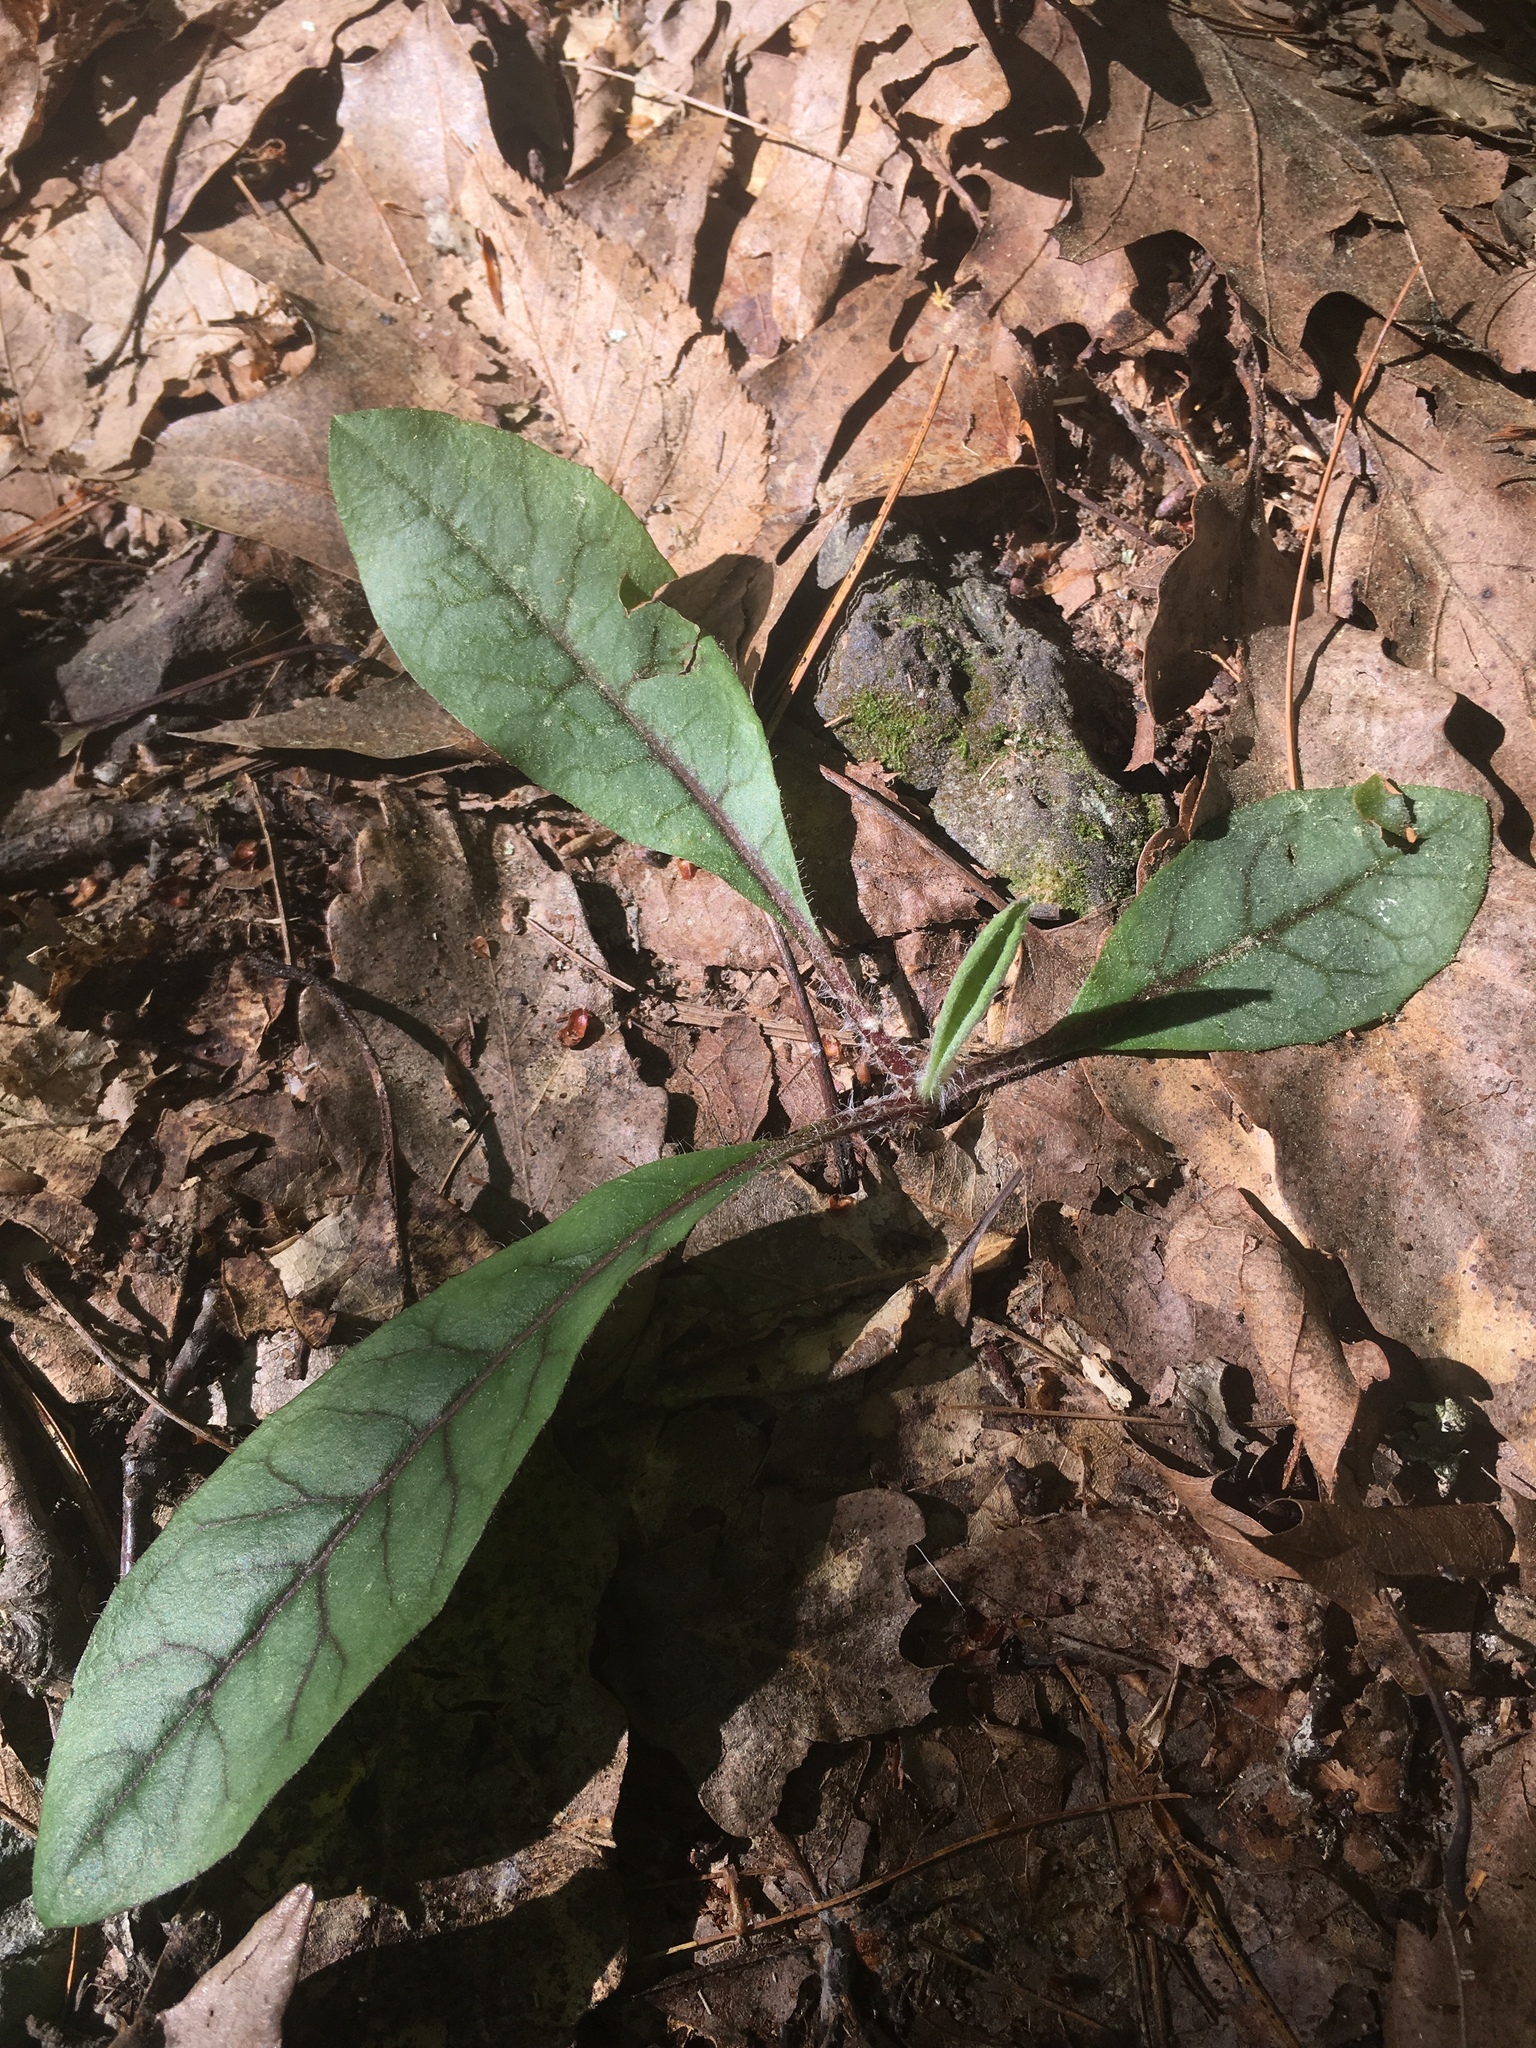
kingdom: Plantae
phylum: Tracheophyta
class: Magnoliopsida
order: Asterales
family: Asteraceae
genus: Hieracium
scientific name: Hieracium venosum
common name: Rattlesnake hawkweed
